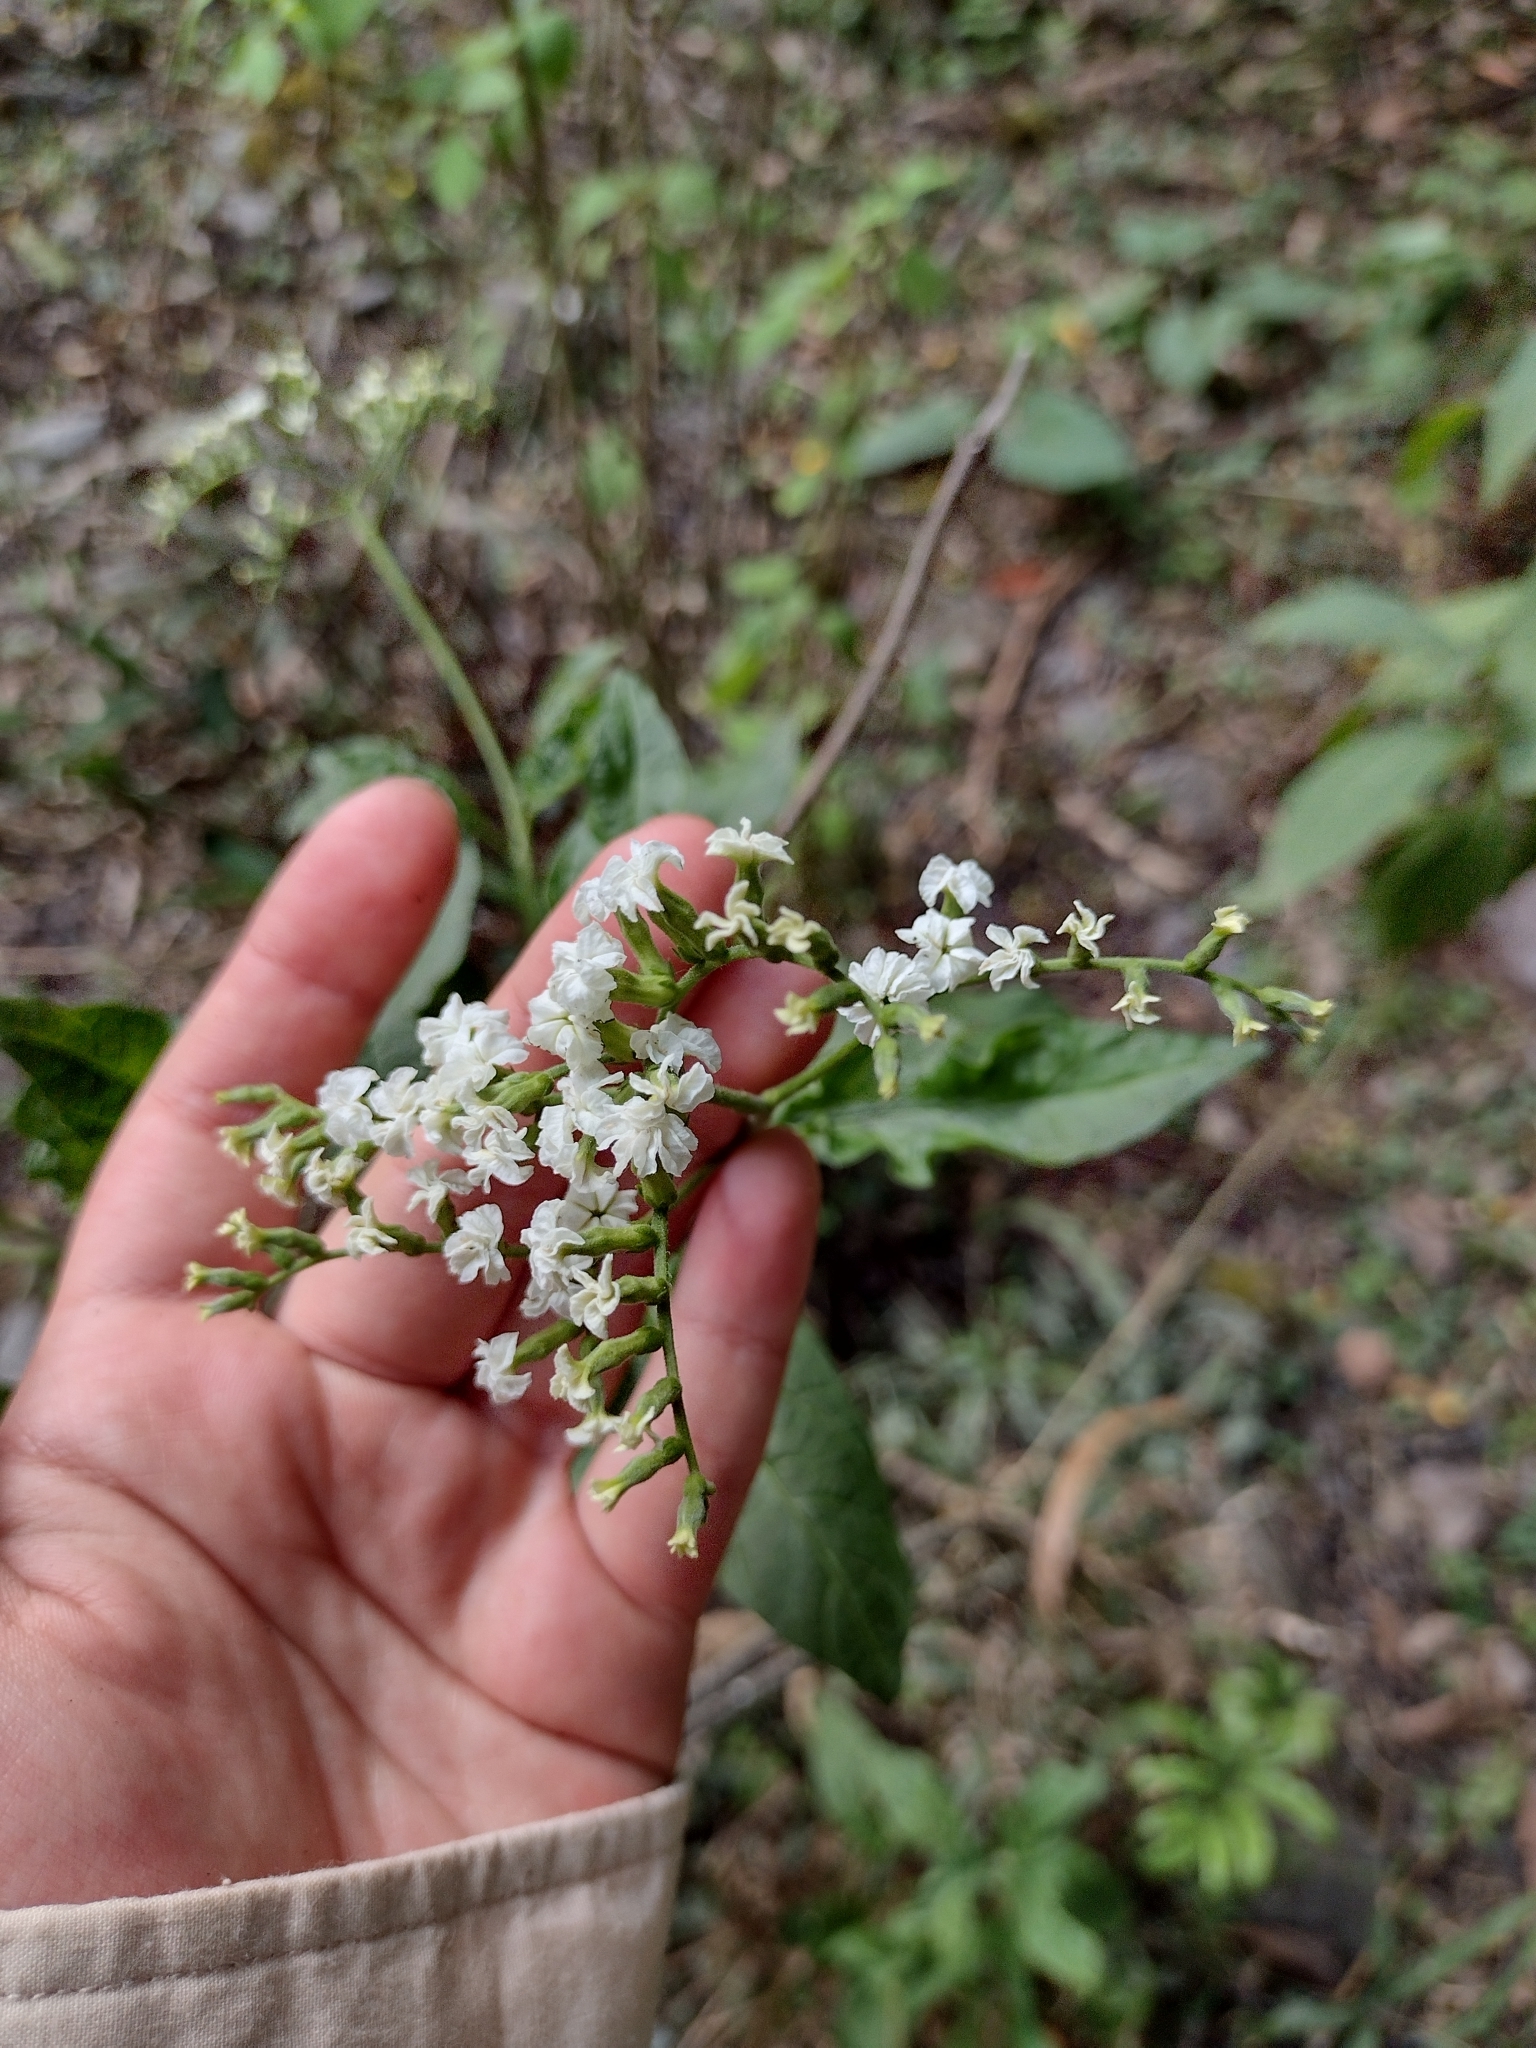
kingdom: Plantae
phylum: Tracheophyta
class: Magnoliopsida
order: Boraginales
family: Heliotropiaceae
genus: Heliotropium
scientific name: Heliotropium lilloi
